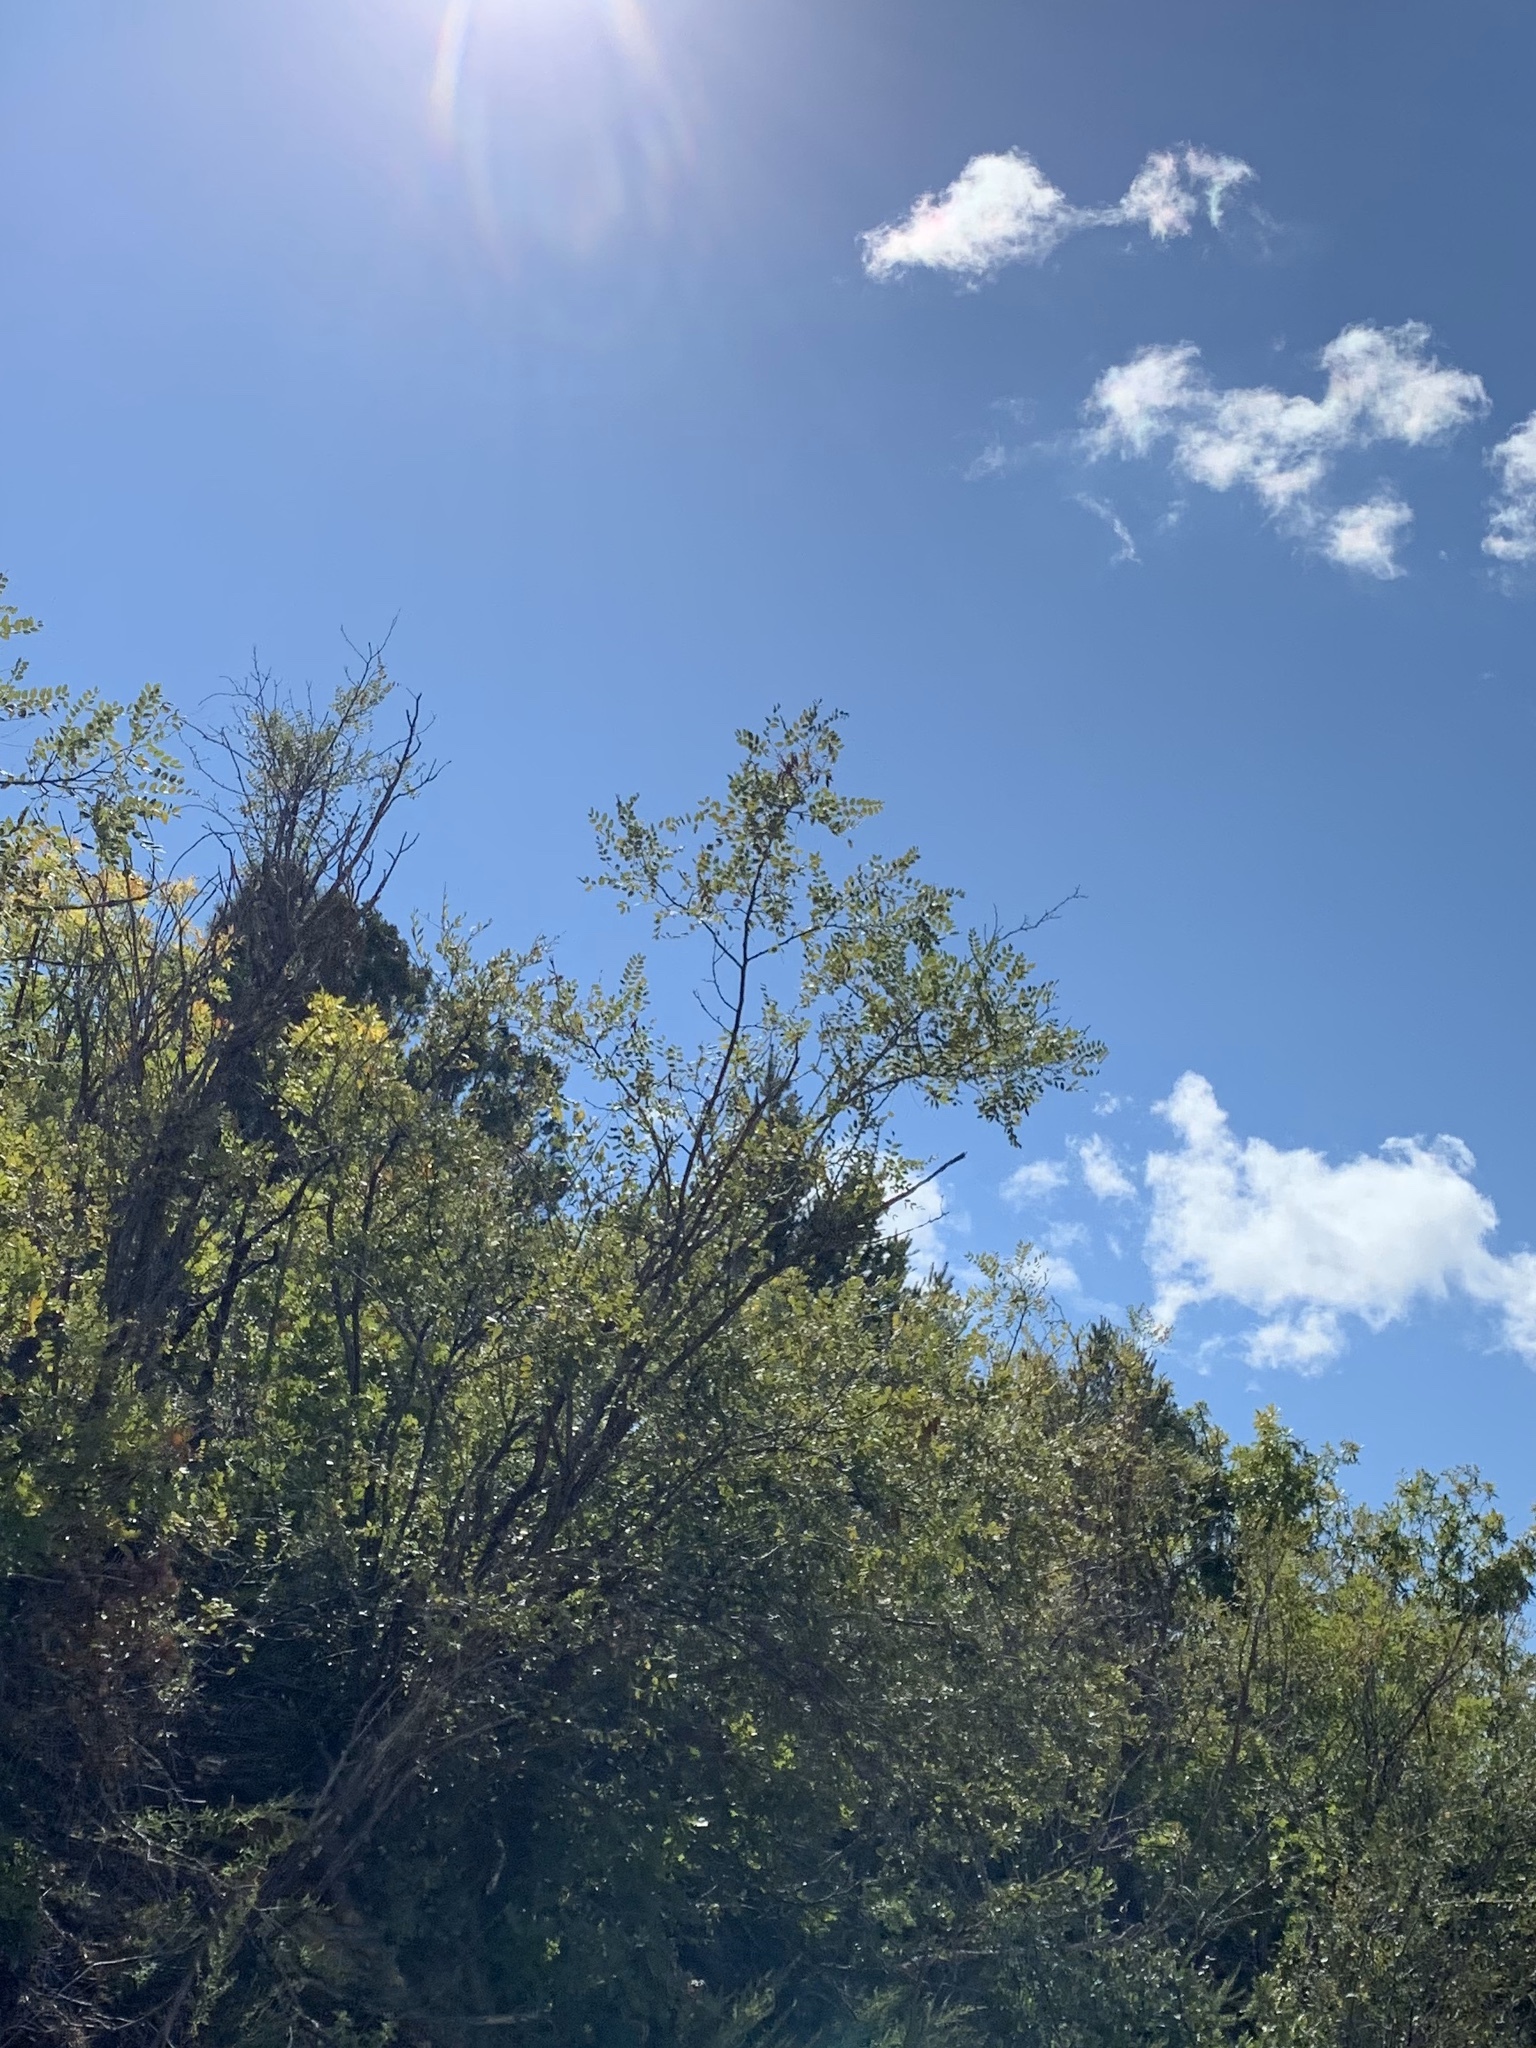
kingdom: Plantae
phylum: Tracheophyta
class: Magnoliopsida
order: Fabales
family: Fabaceae
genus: Robinia
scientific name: Robinia neomexicana
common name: New mexico locust
